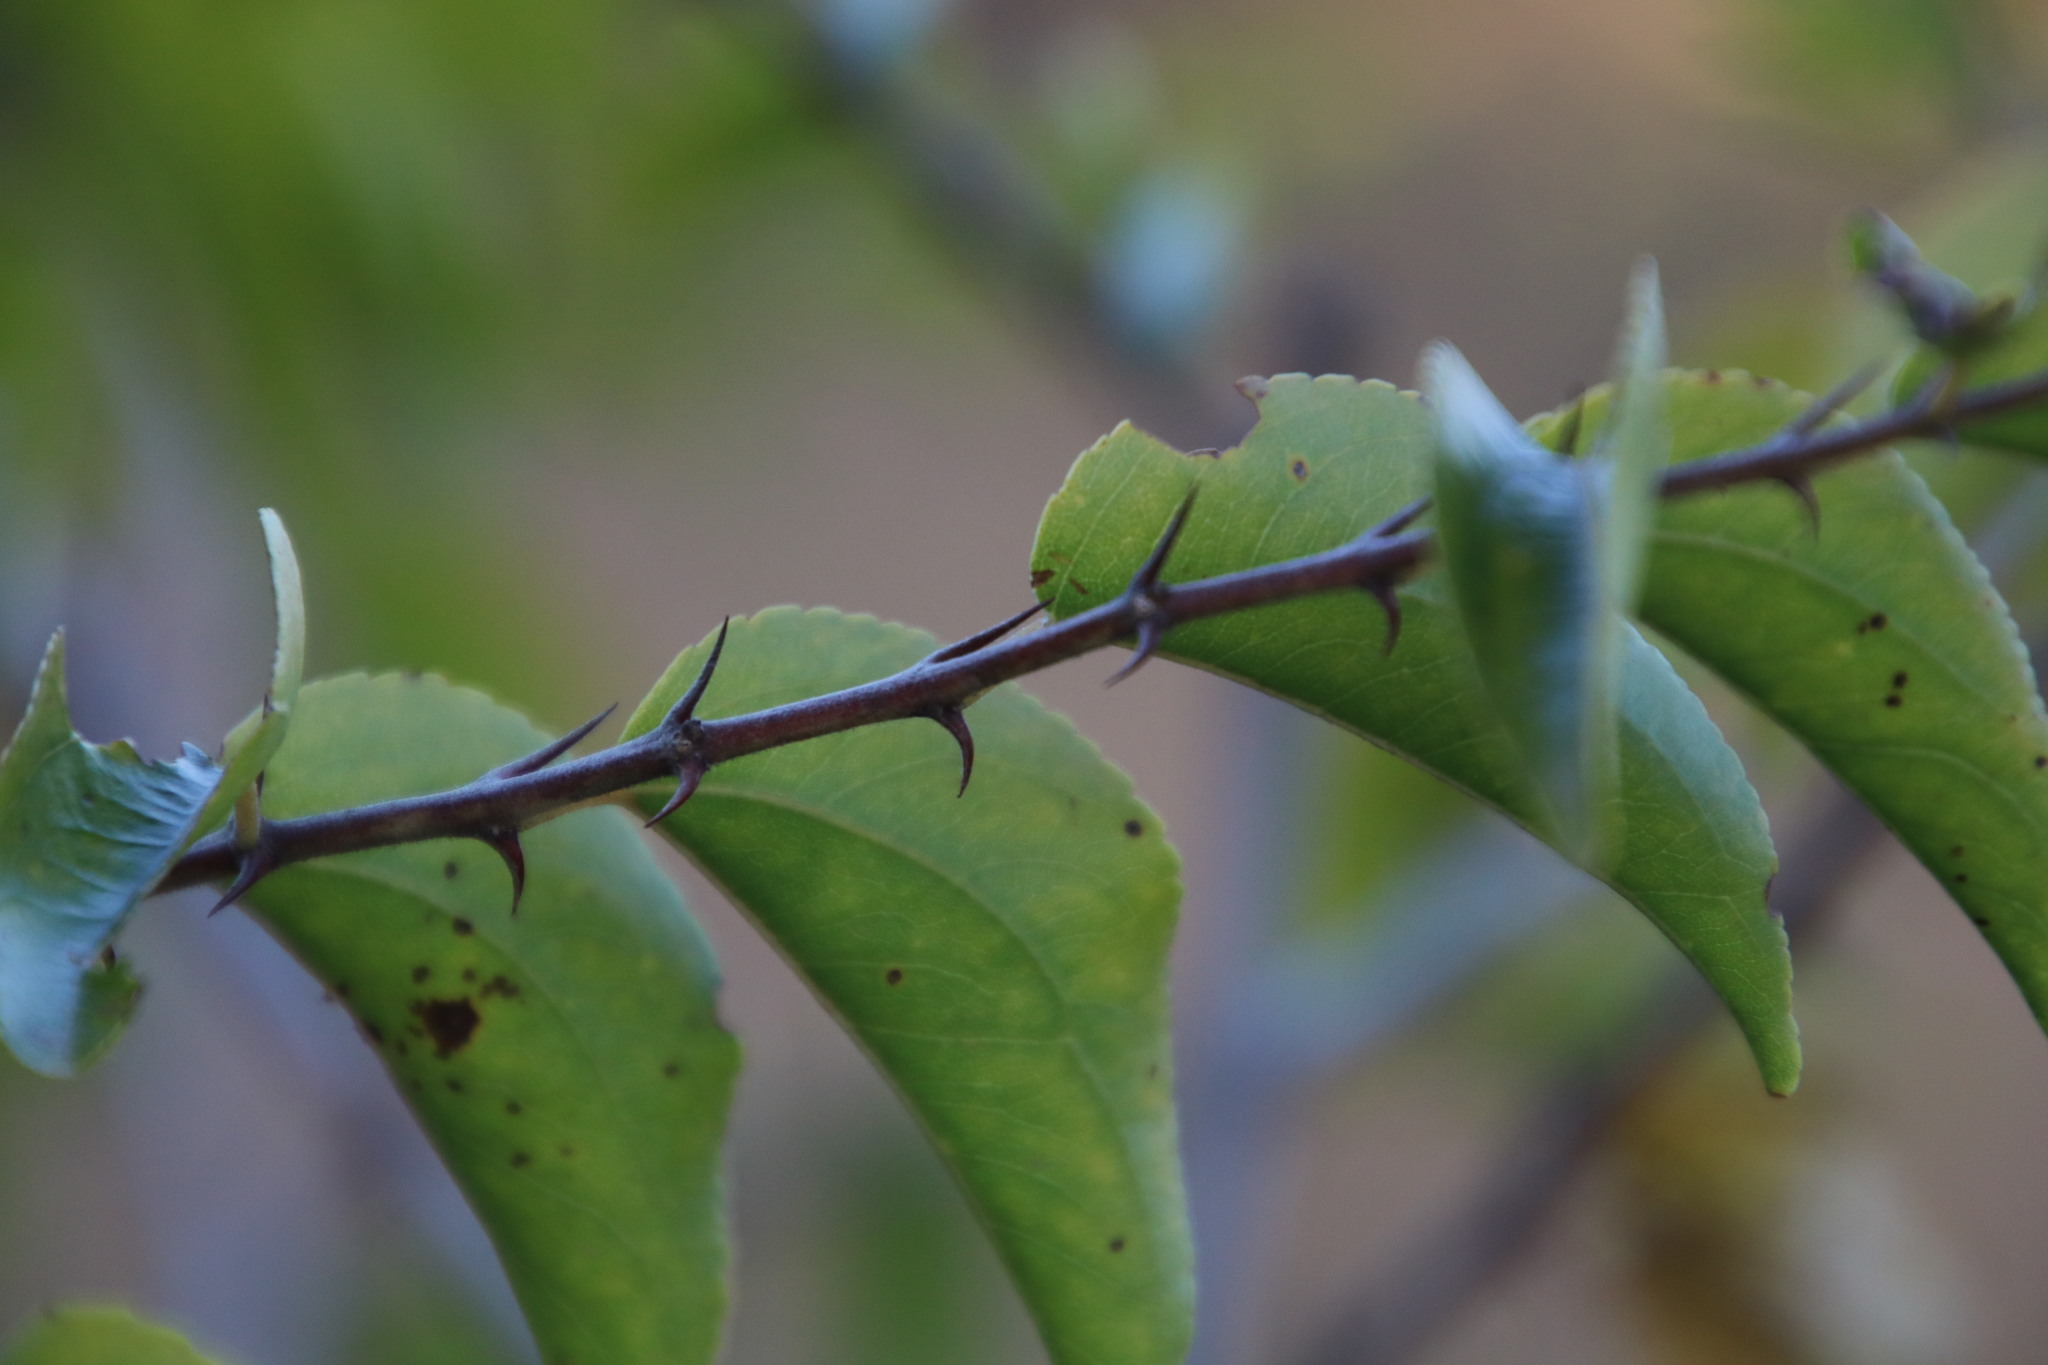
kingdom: Plantae
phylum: Tracheophyta
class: Magnoliopsida
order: Rosales
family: Rhamnaceae
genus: Ziziphus
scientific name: Ziziphus mucronata
